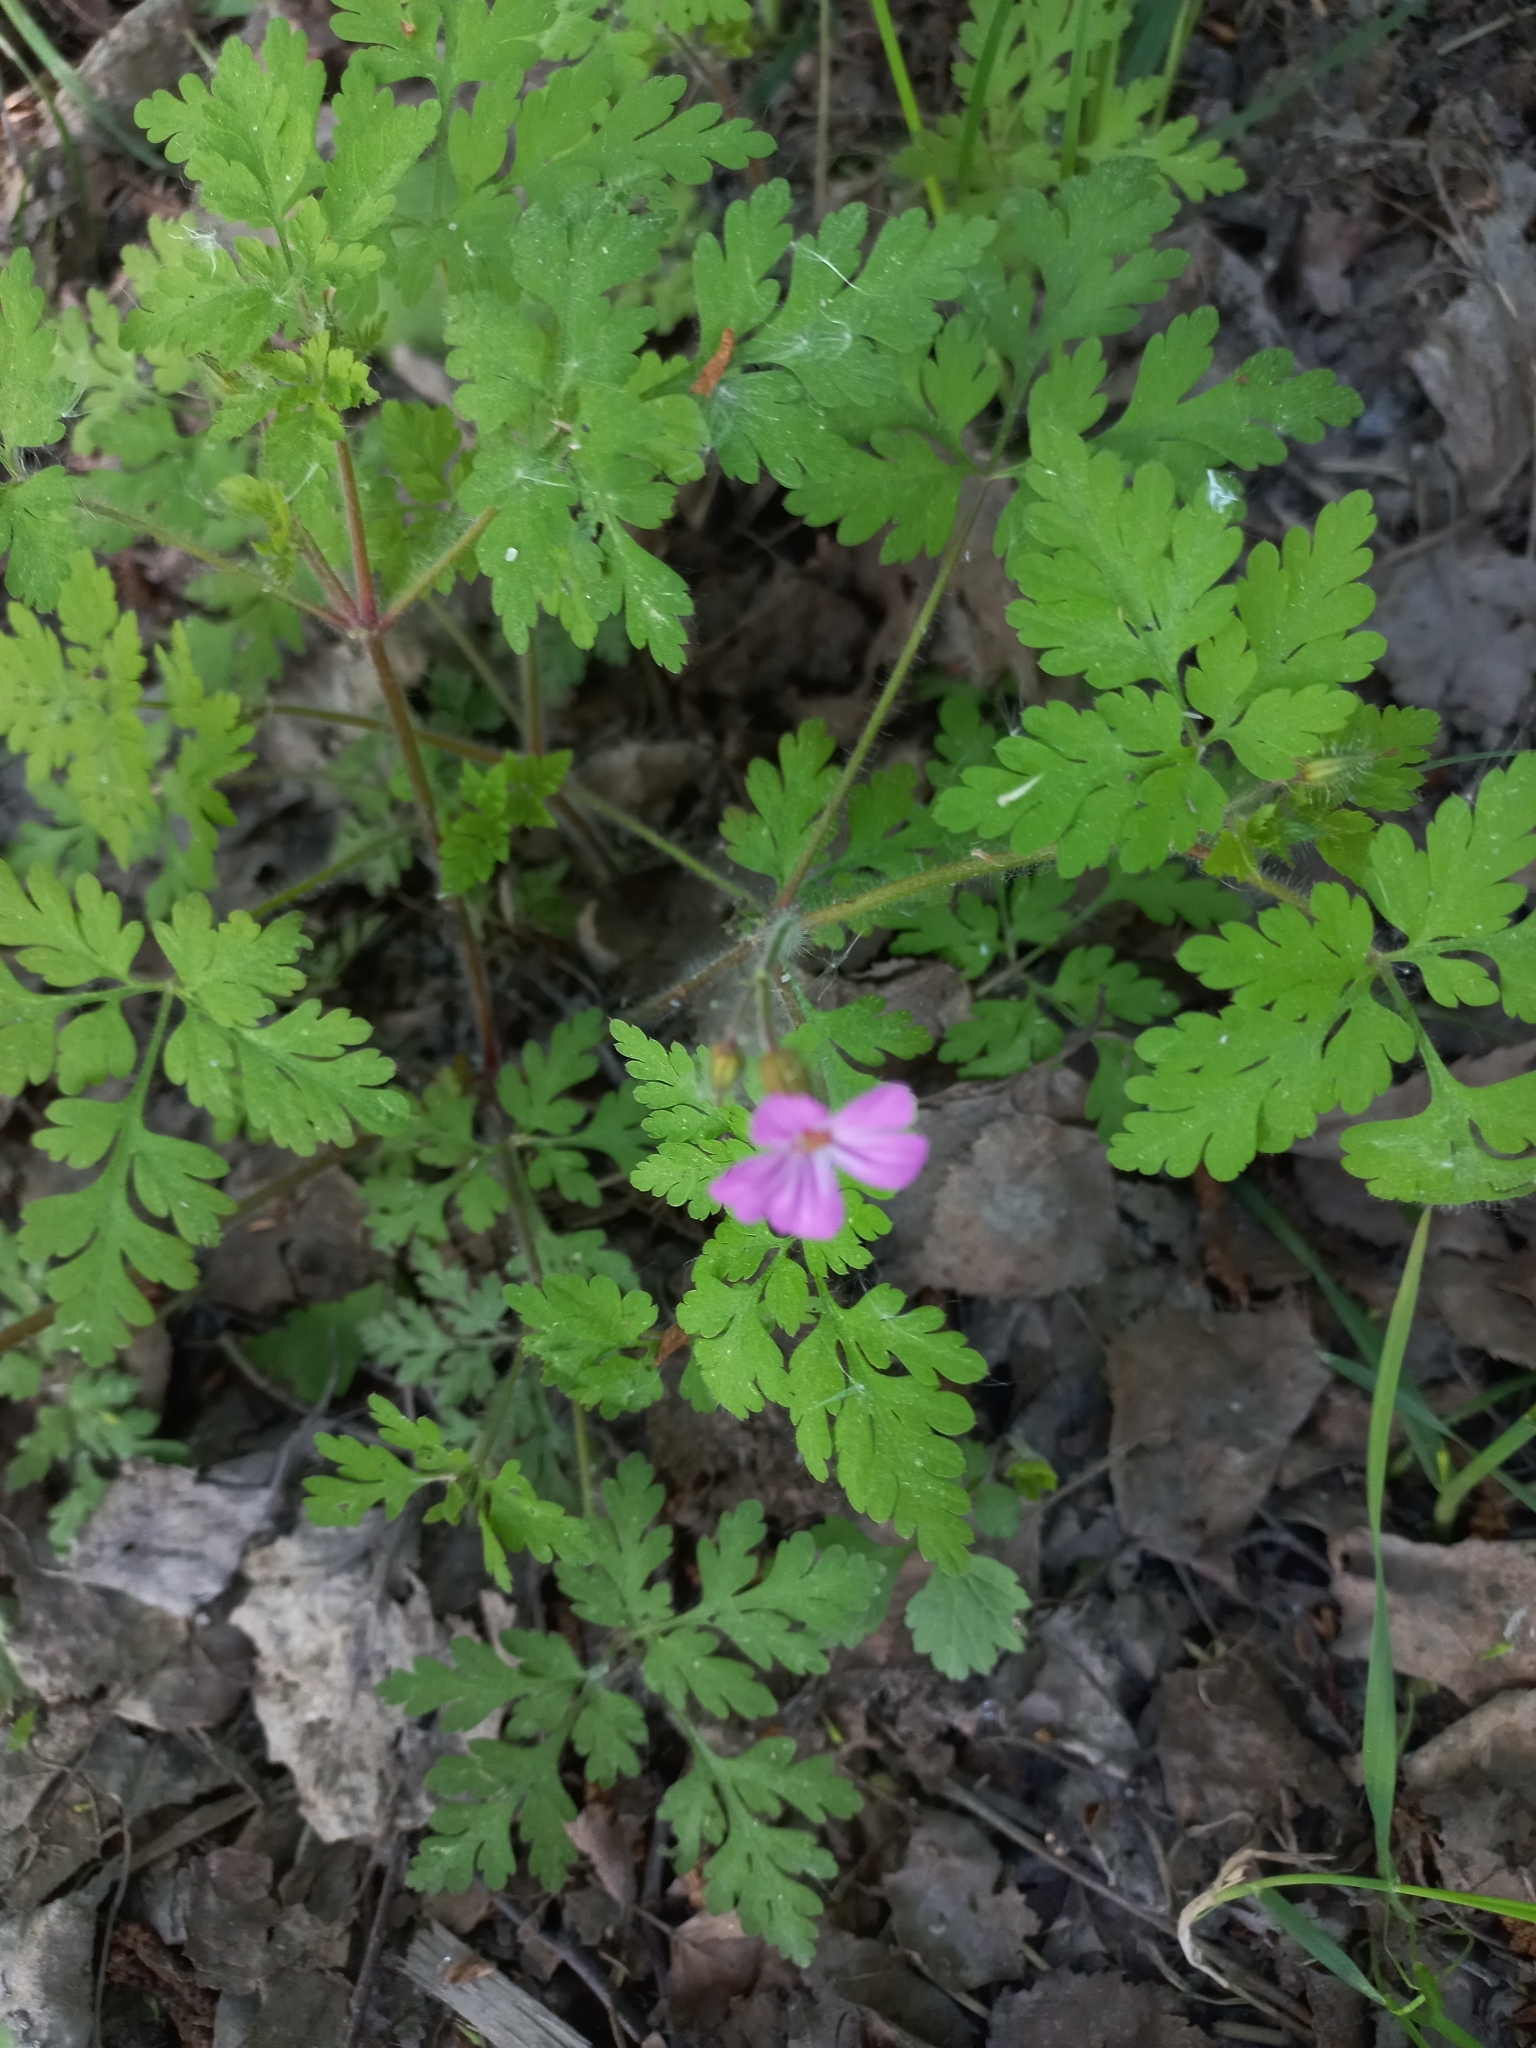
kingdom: Plantae
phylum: Tracheophyta
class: Magnoliopsida
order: Geraniales
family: Geraniaceae
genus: Geranium
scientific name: Geranium robertianum
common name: Herb-robert
